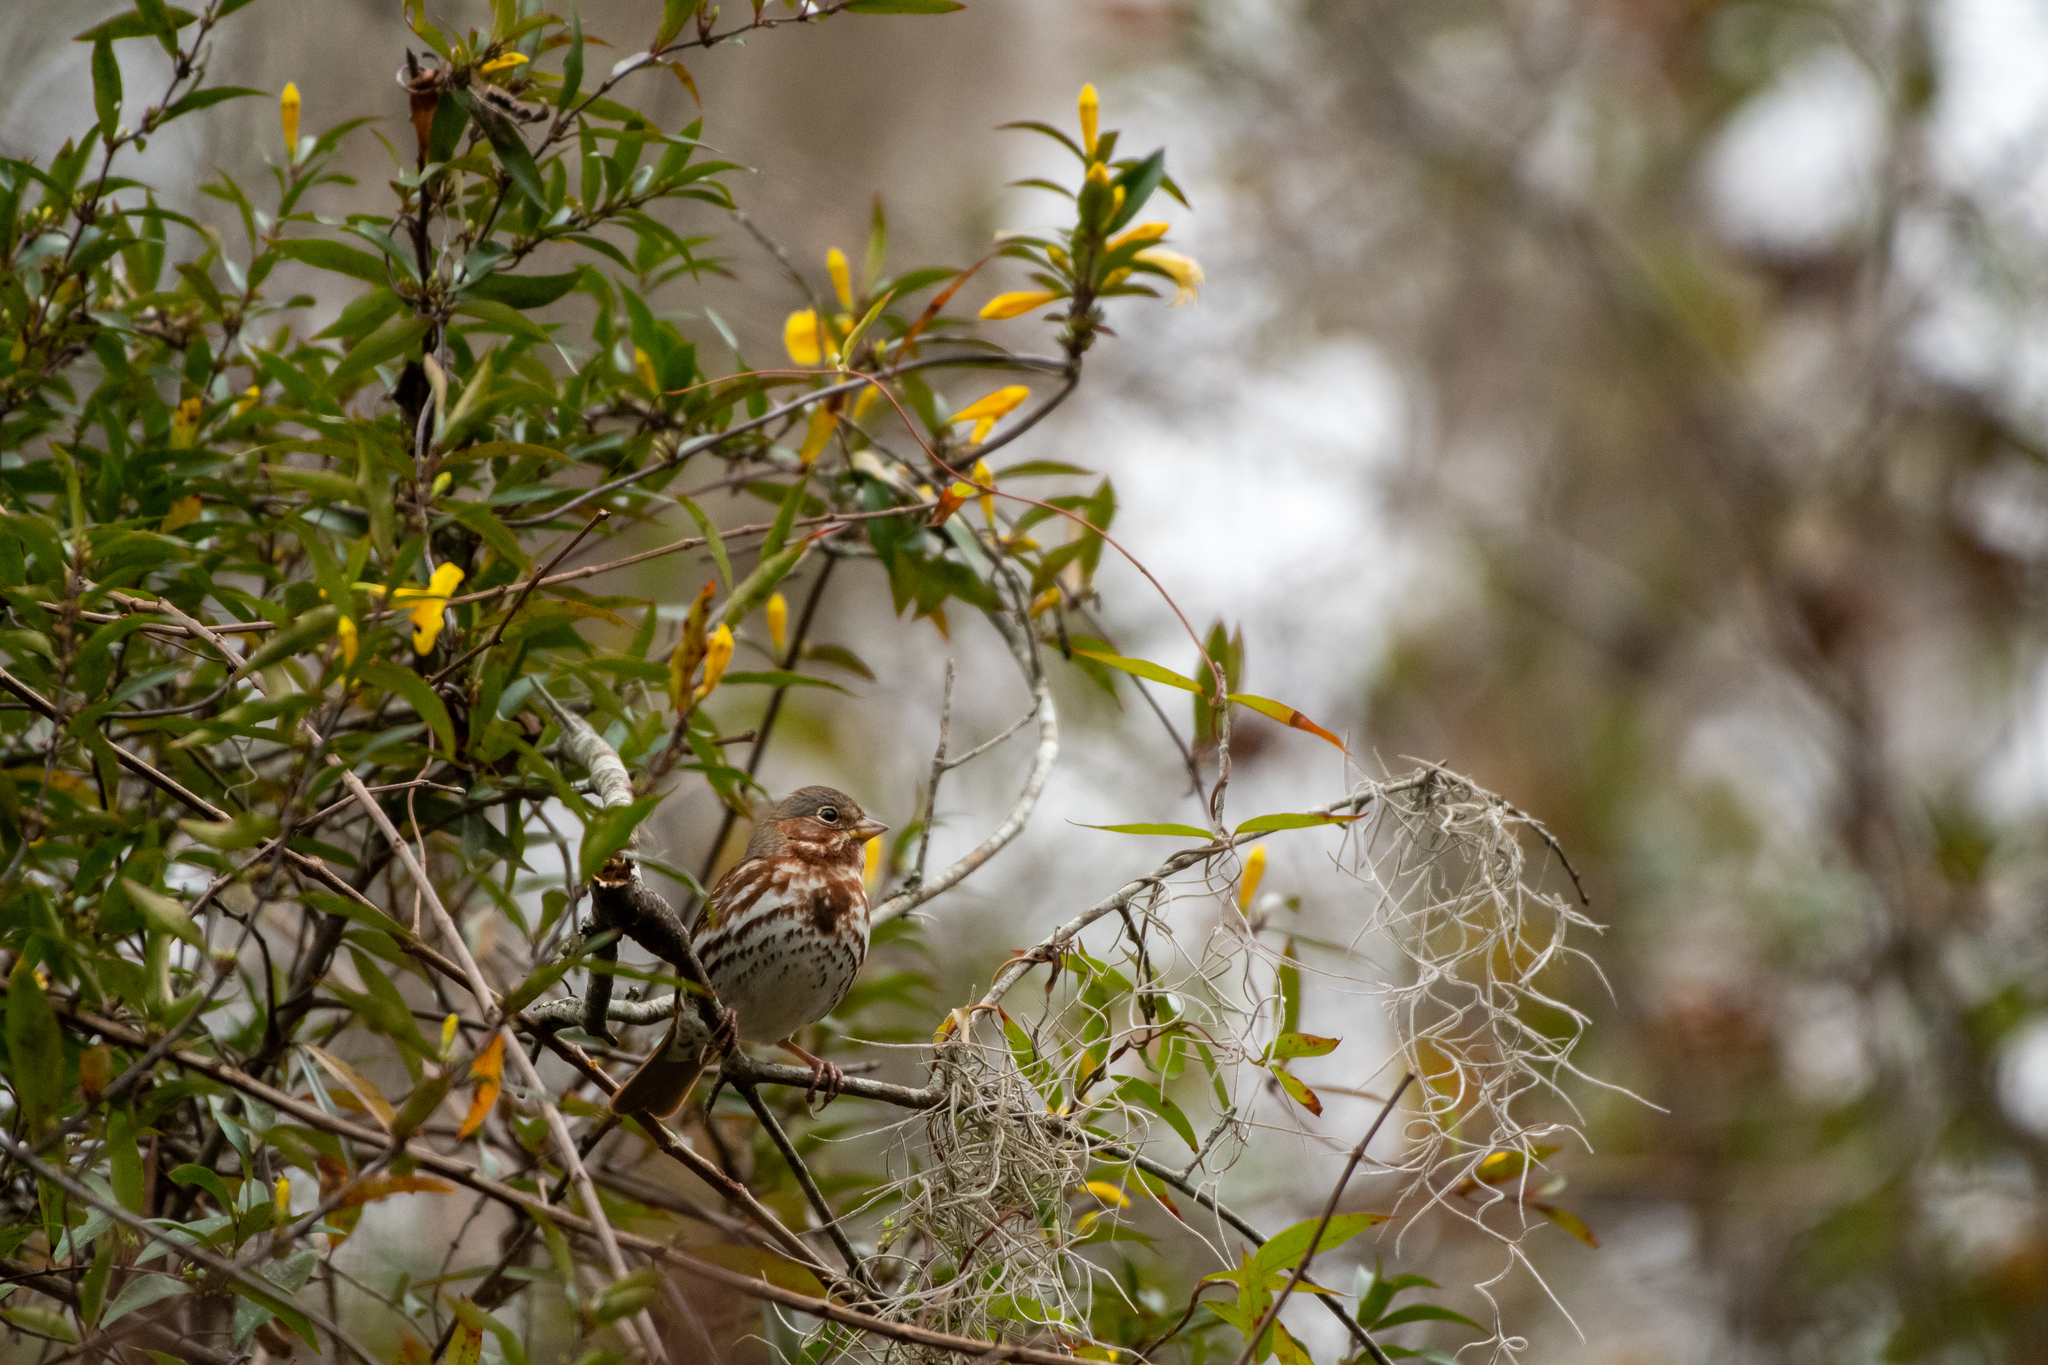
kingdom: Animalia
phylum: Chordata
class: Aves
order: Passeriformes
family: Passerellidae
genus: Passerella
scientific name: Passerella iliaca
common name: Fox sparrow
